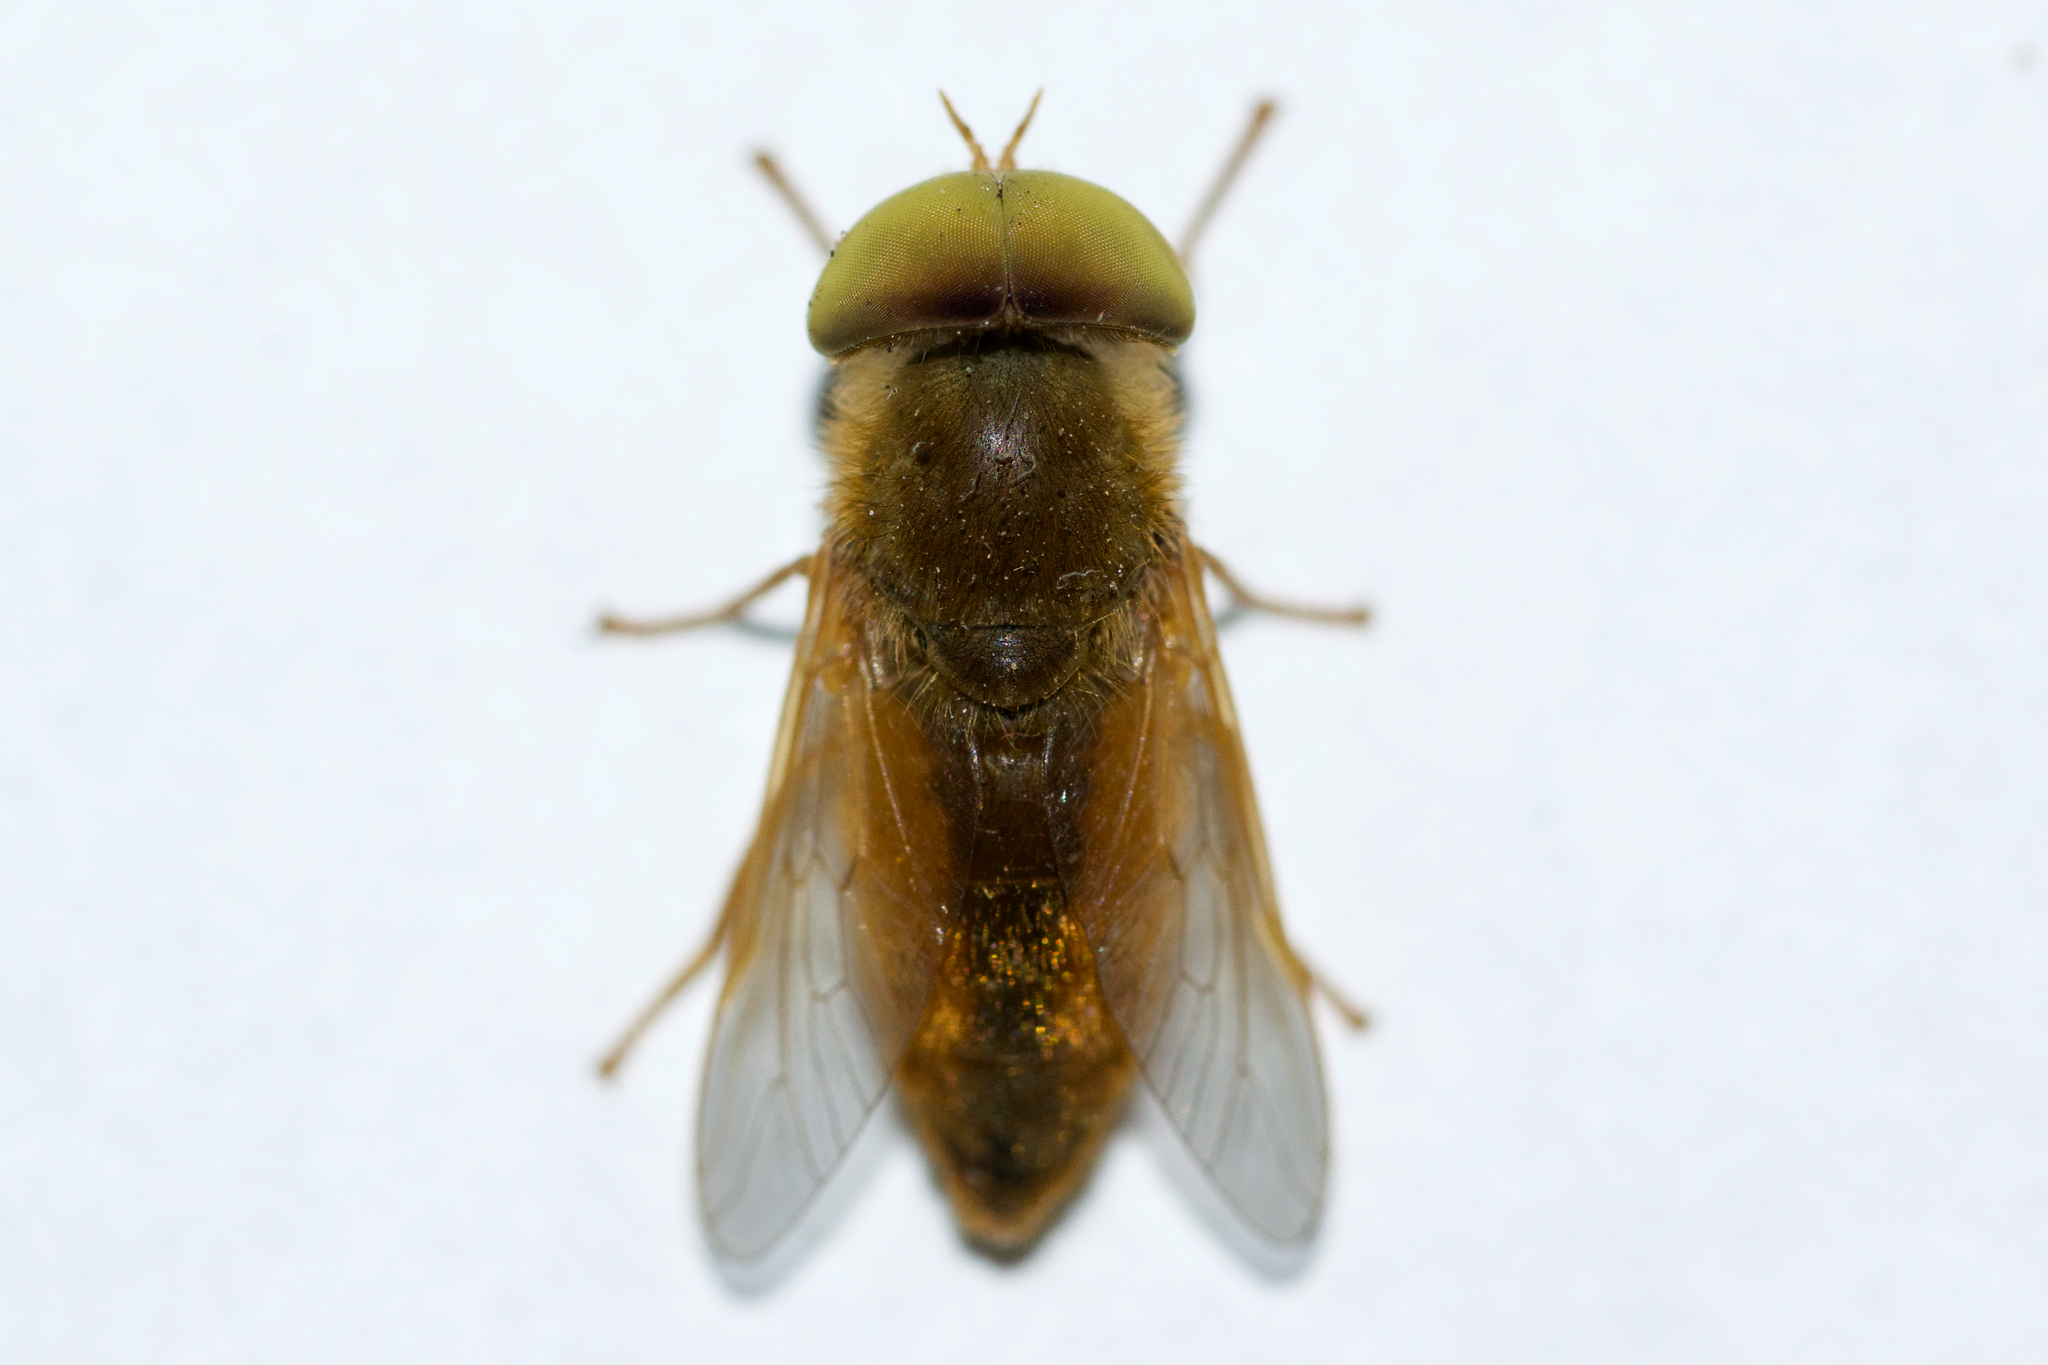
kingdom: Animalia
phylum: Arthropoda
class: Insecta
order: Diptera
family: Tabanidae
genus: Atylotus
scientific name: Atylotus bicolor
